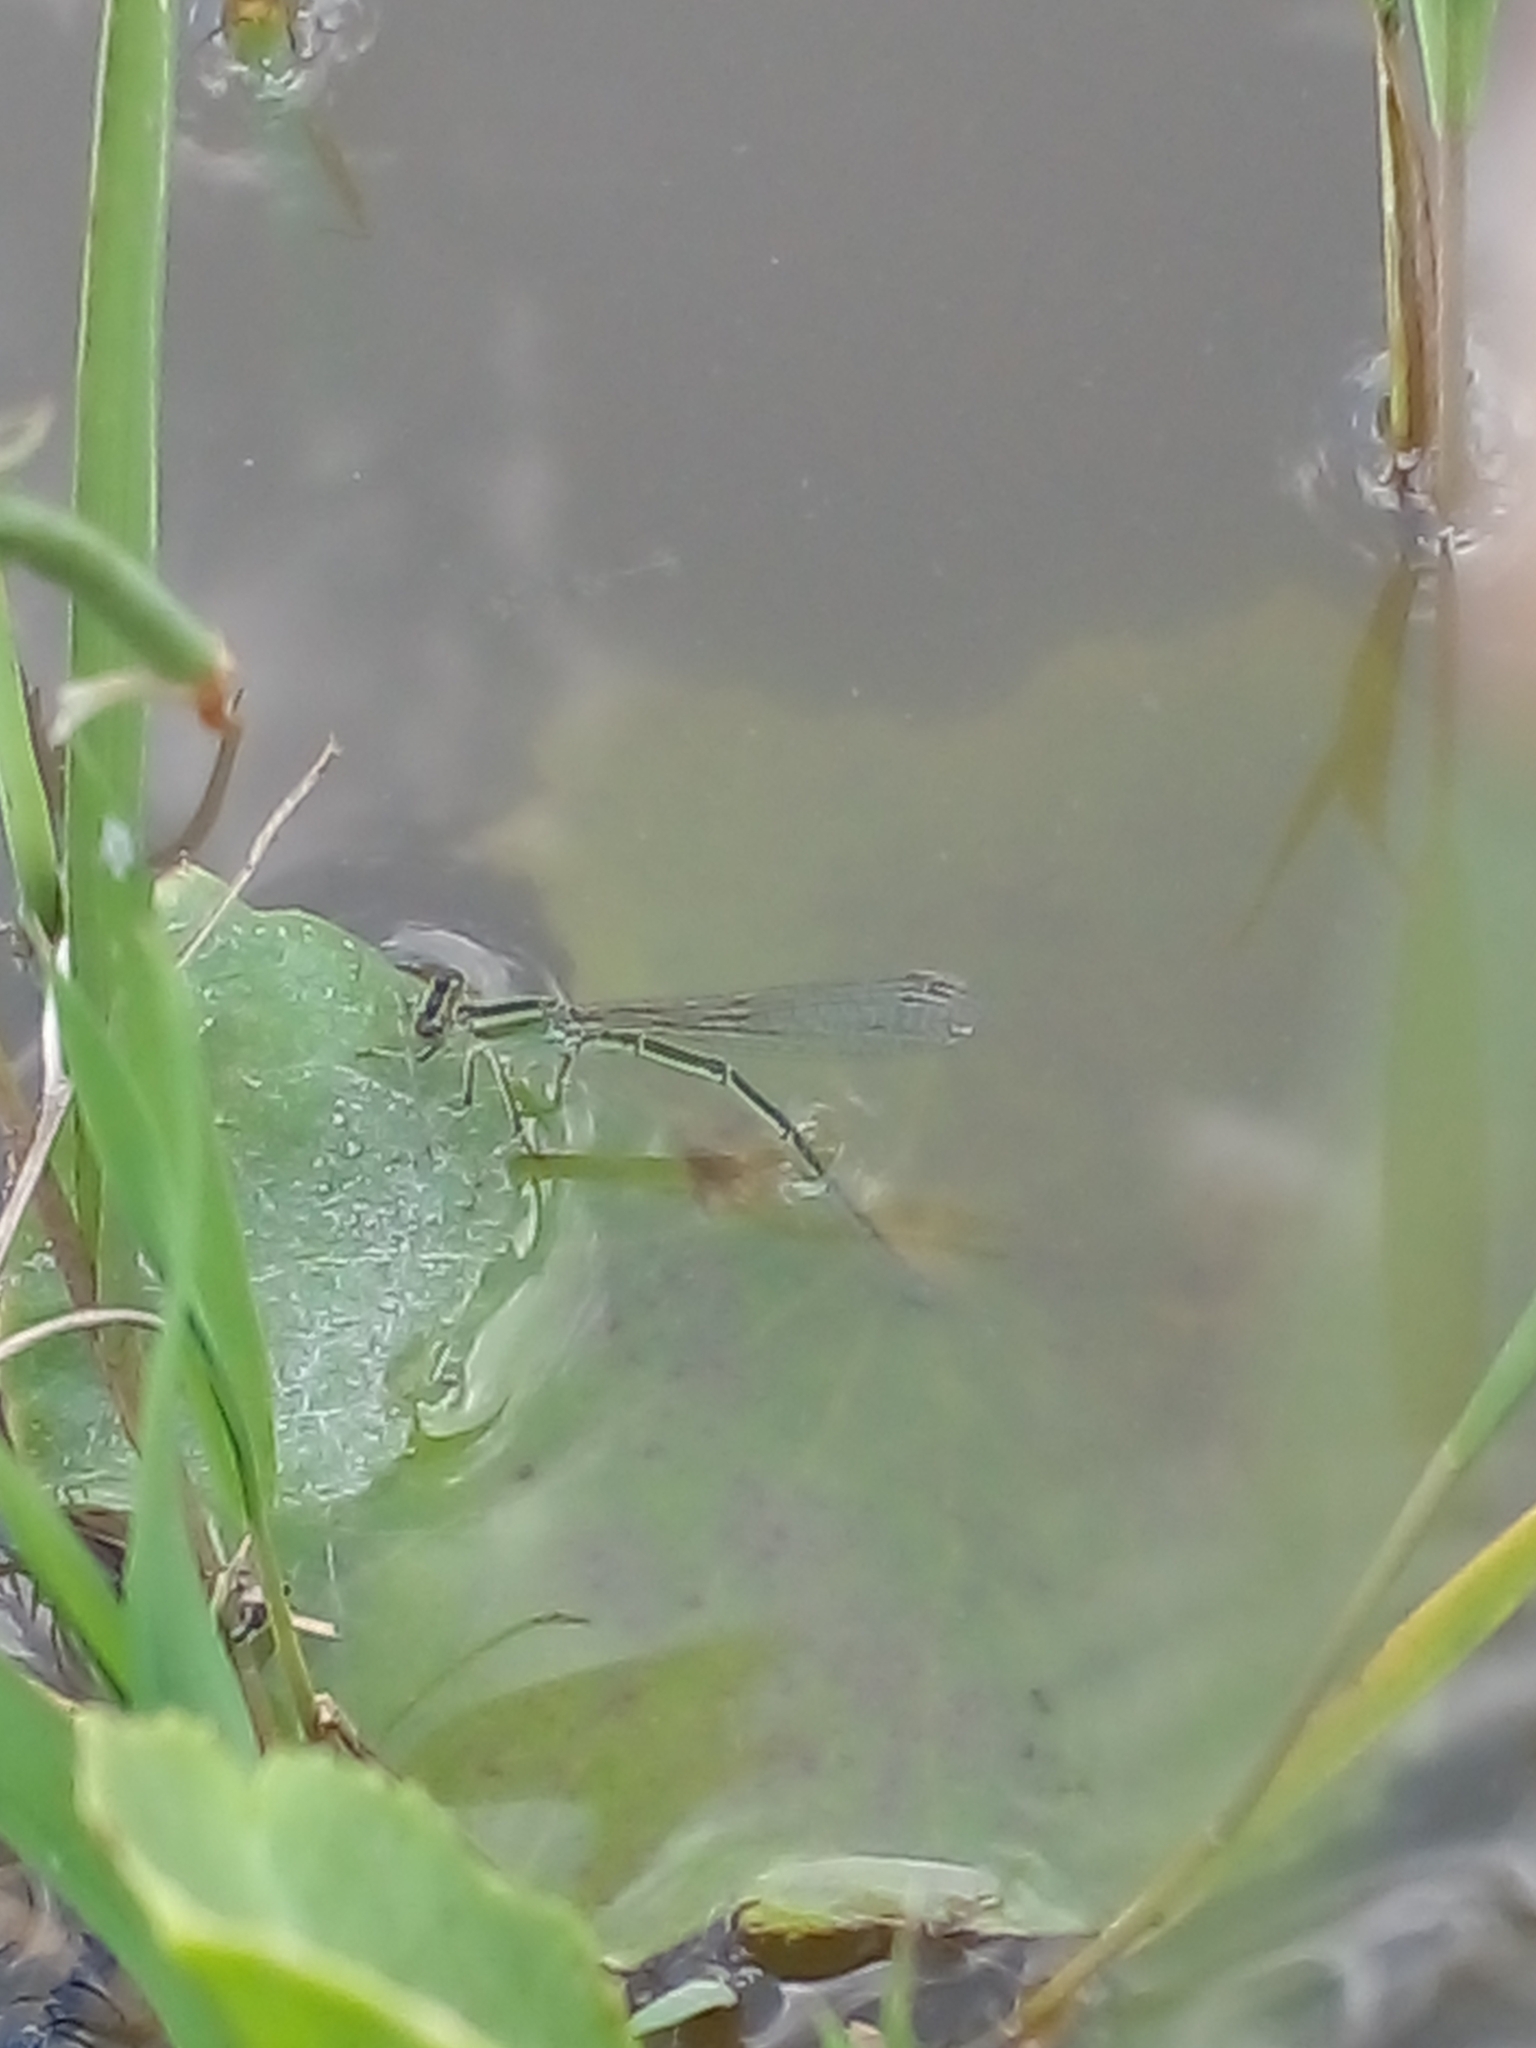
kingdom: Animalia
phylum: Arthropoda
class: Insecta
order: Odonata
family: Coenagrionidae
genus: Ischnura
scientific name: Ischnura fluviatilis
